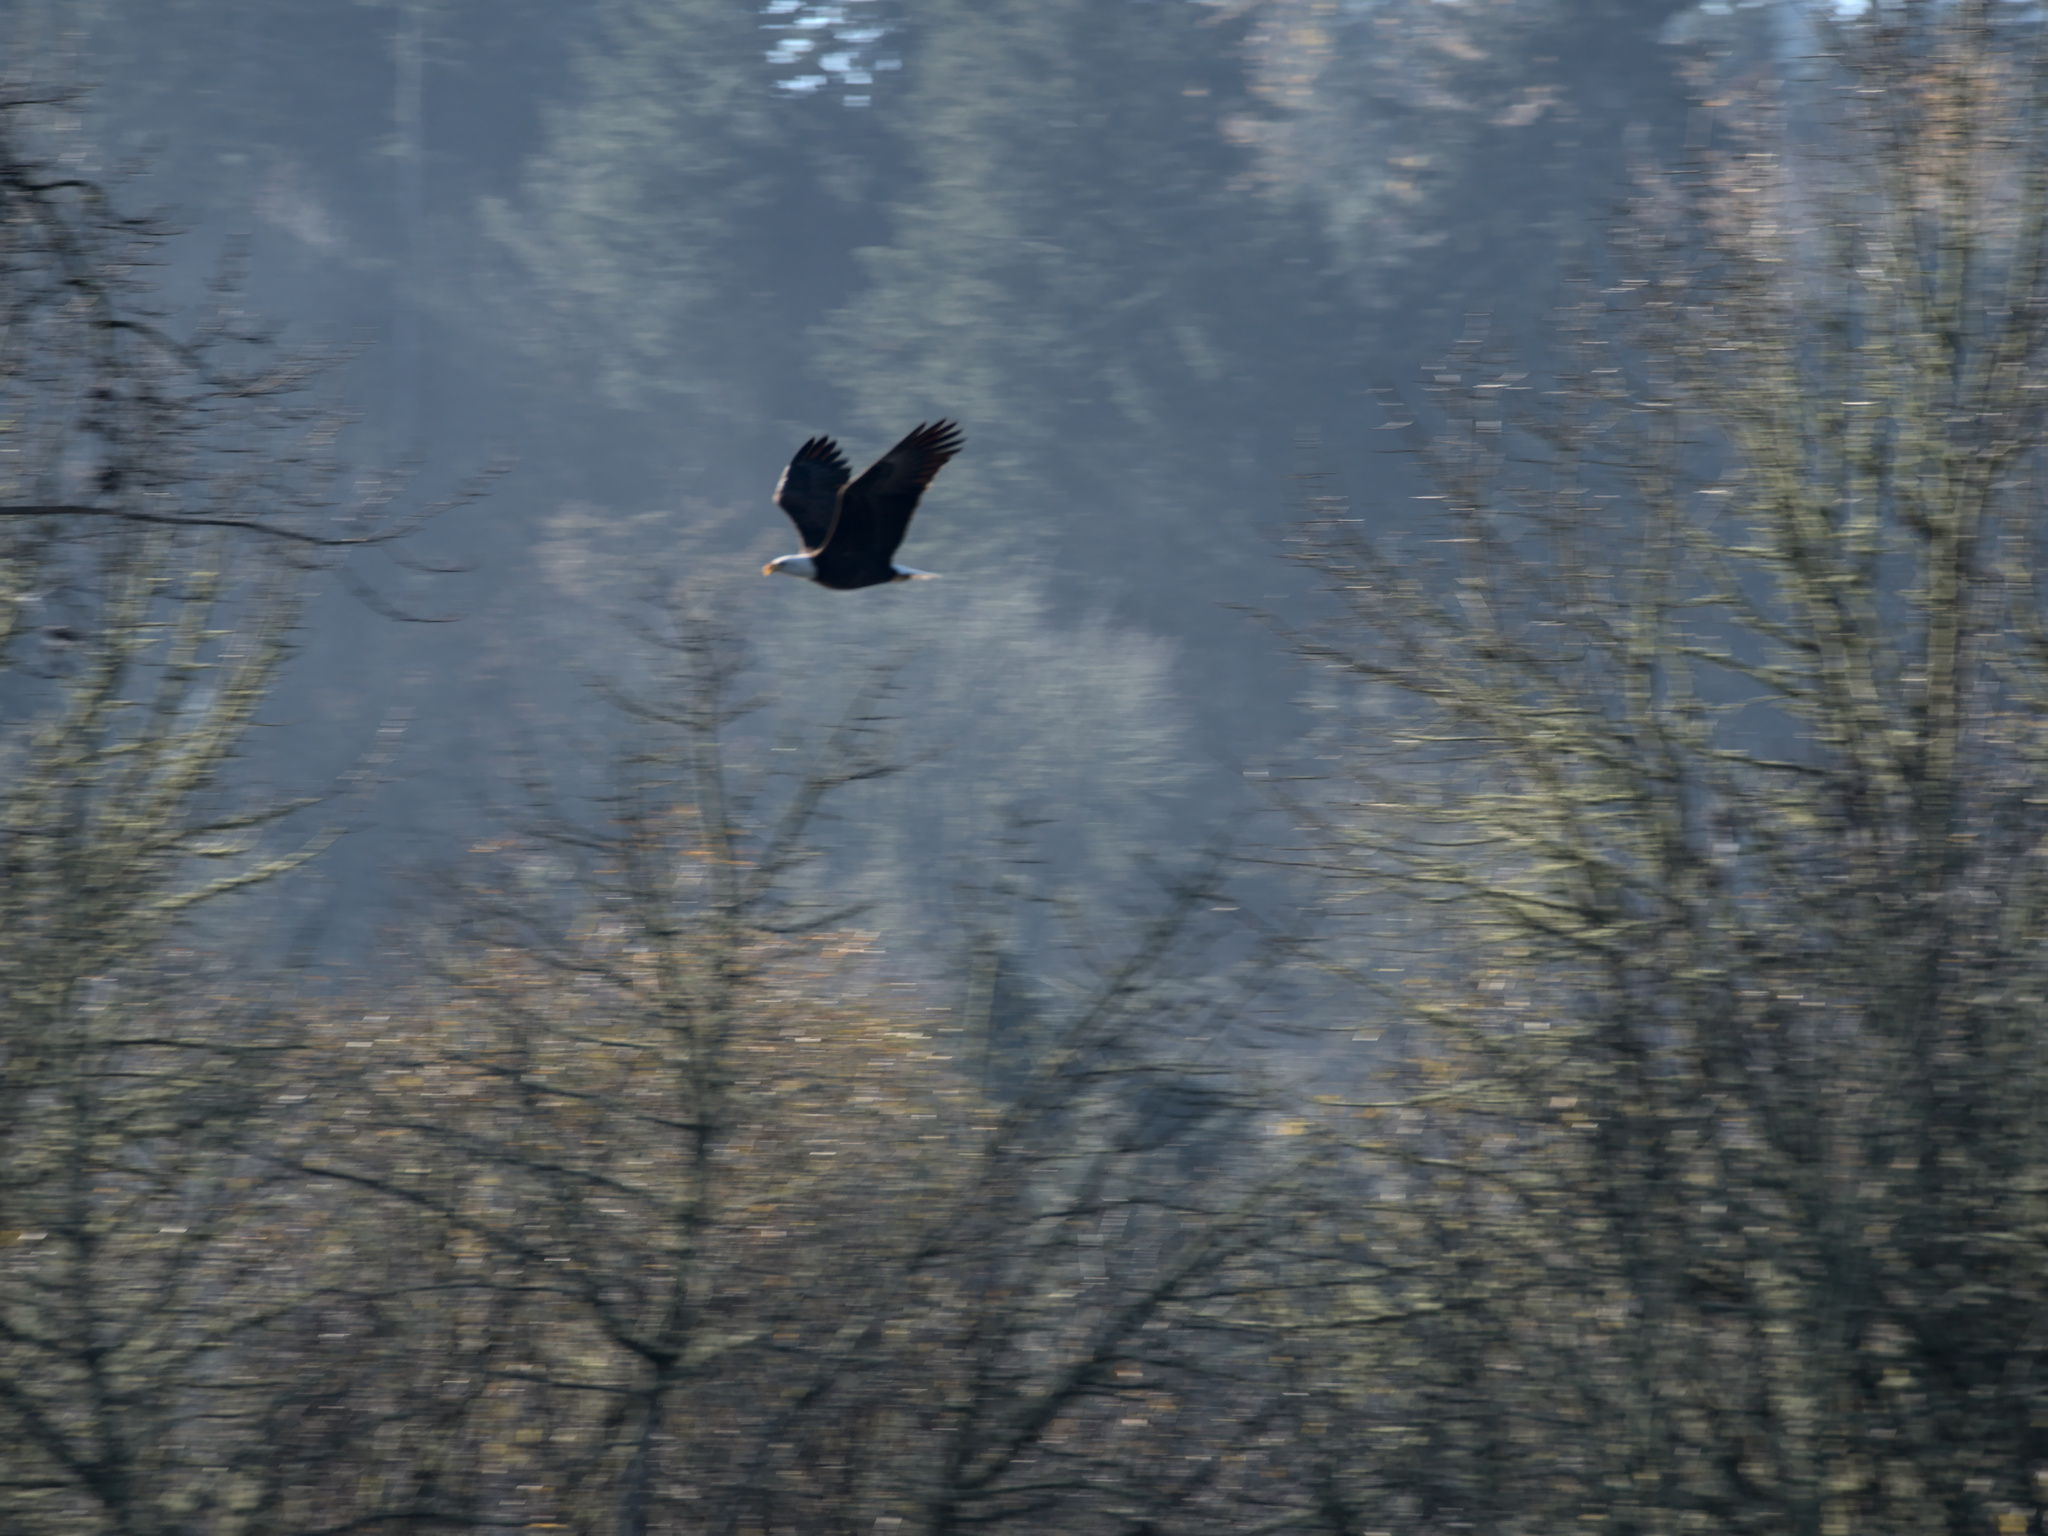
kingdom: Animalia
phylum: Chordata
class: Aves
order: Accipitriformes
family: Accipitridae
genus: Haliaeetus
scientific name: Haliaeetus leucocephalus
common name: Bald eagle
